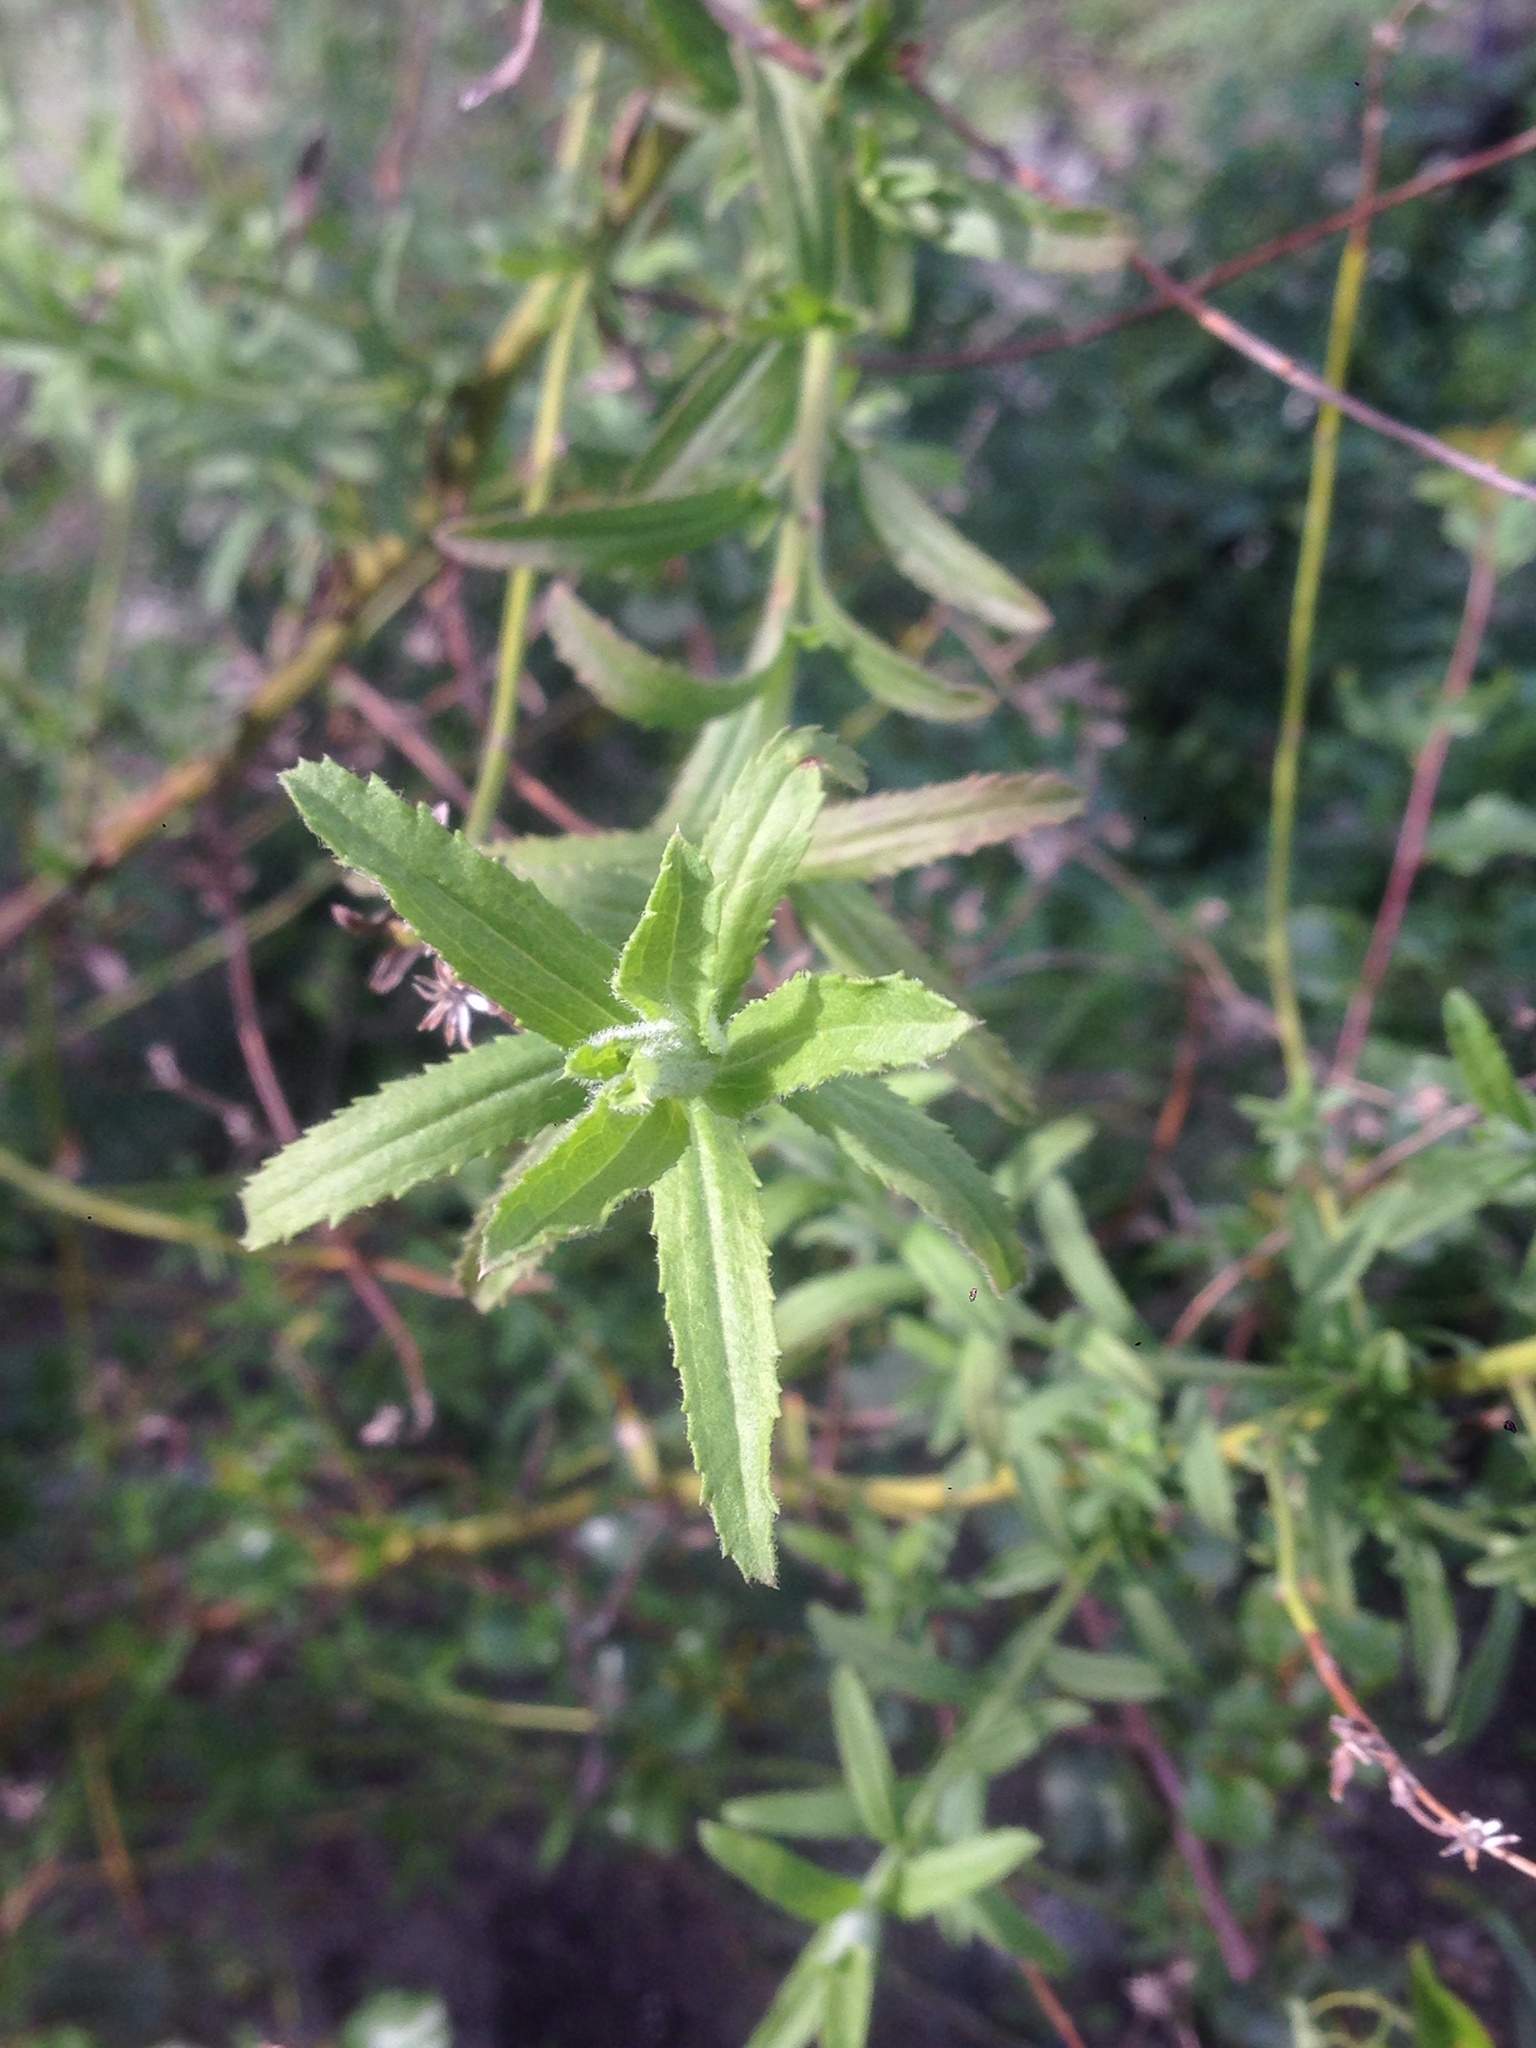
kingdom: Plantae
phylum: Tracheophyta
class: Magnoliopsida
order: Asterales
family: Asteraceae
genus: Baccharis
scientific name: Baccharis plummerae
